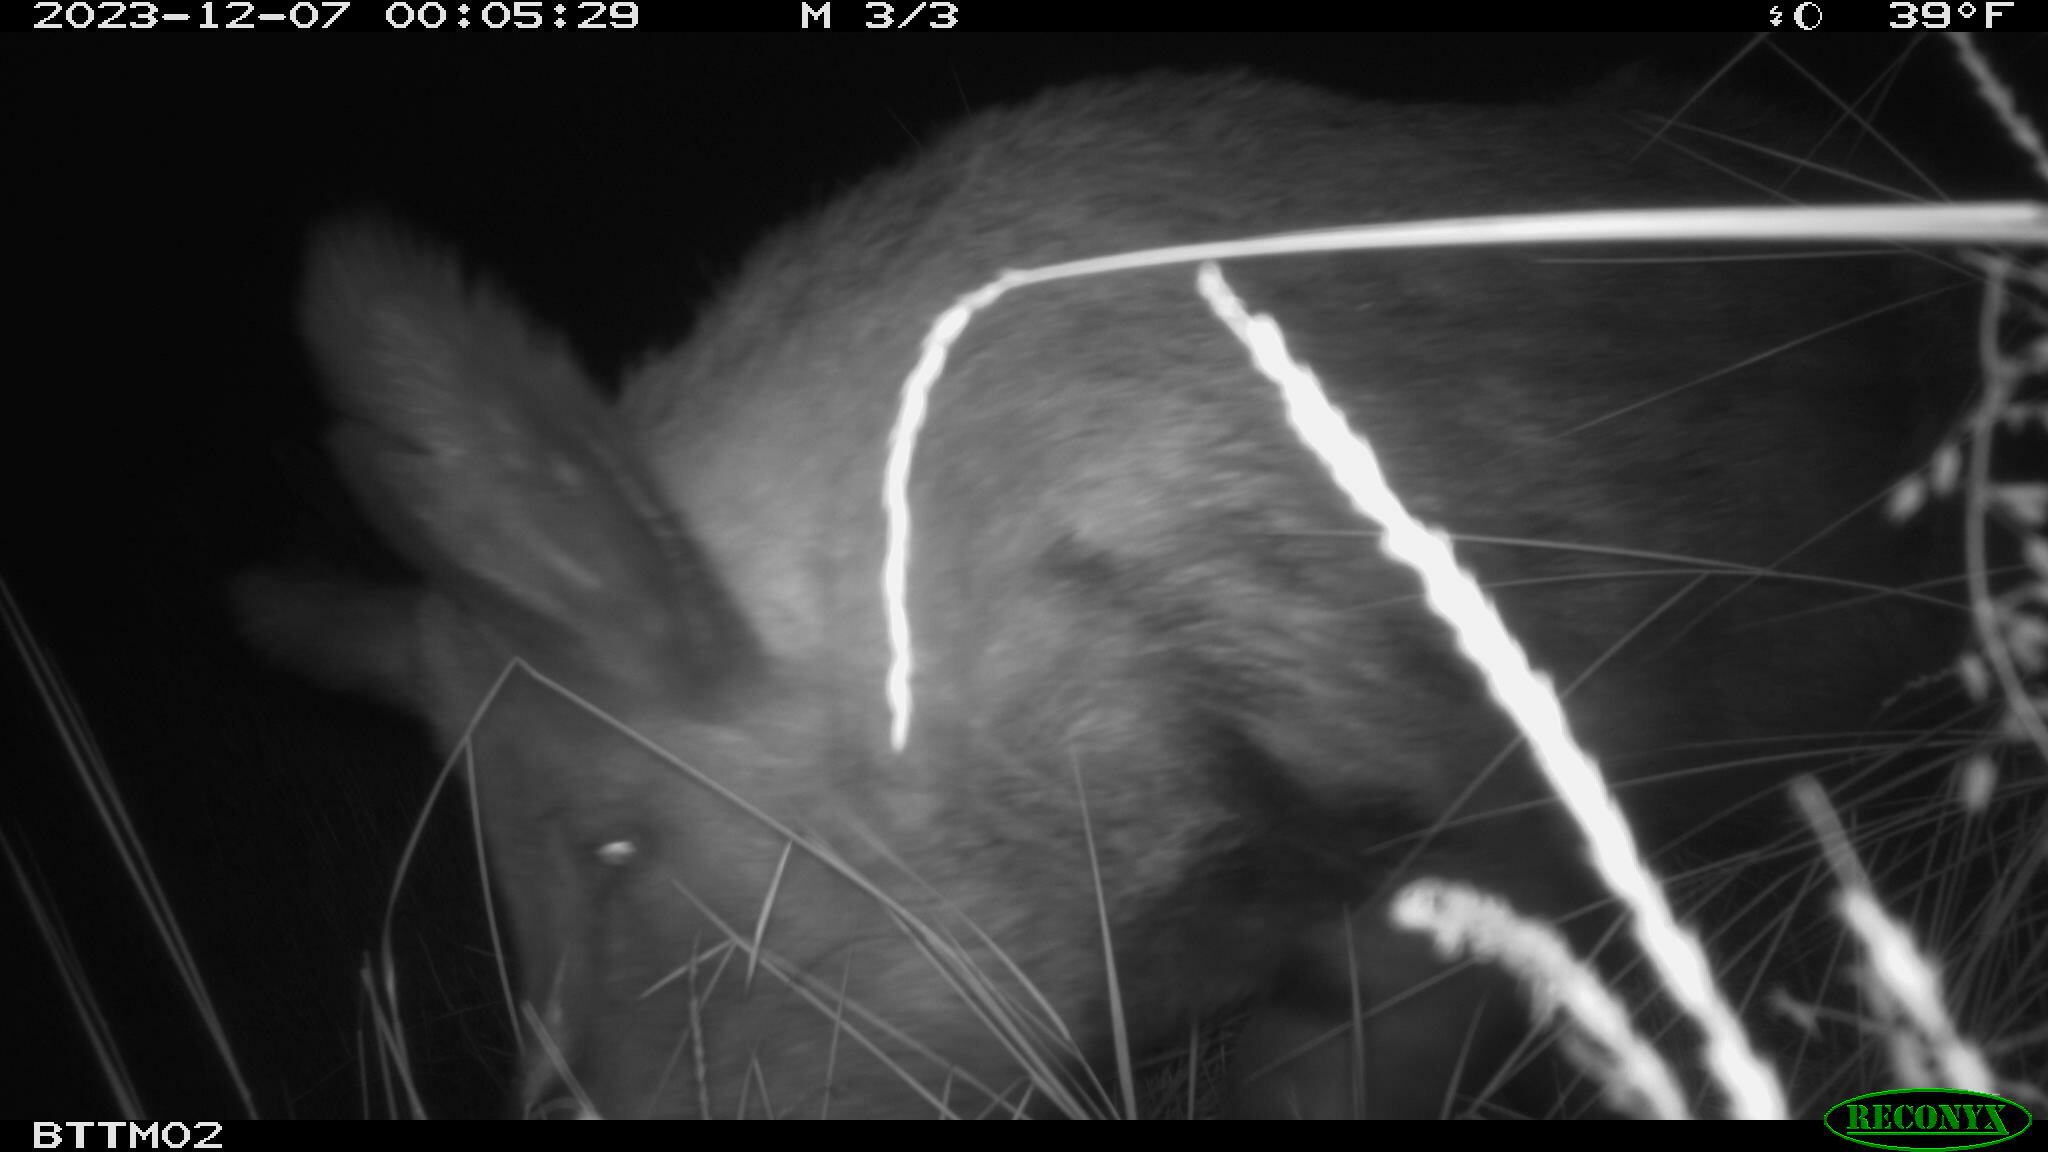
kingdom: Animalia
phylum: Chordata
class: Mammalia
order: Artiodactyla
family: Suidae
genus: Sus
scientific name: Sus scrofa
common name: Wild boar
